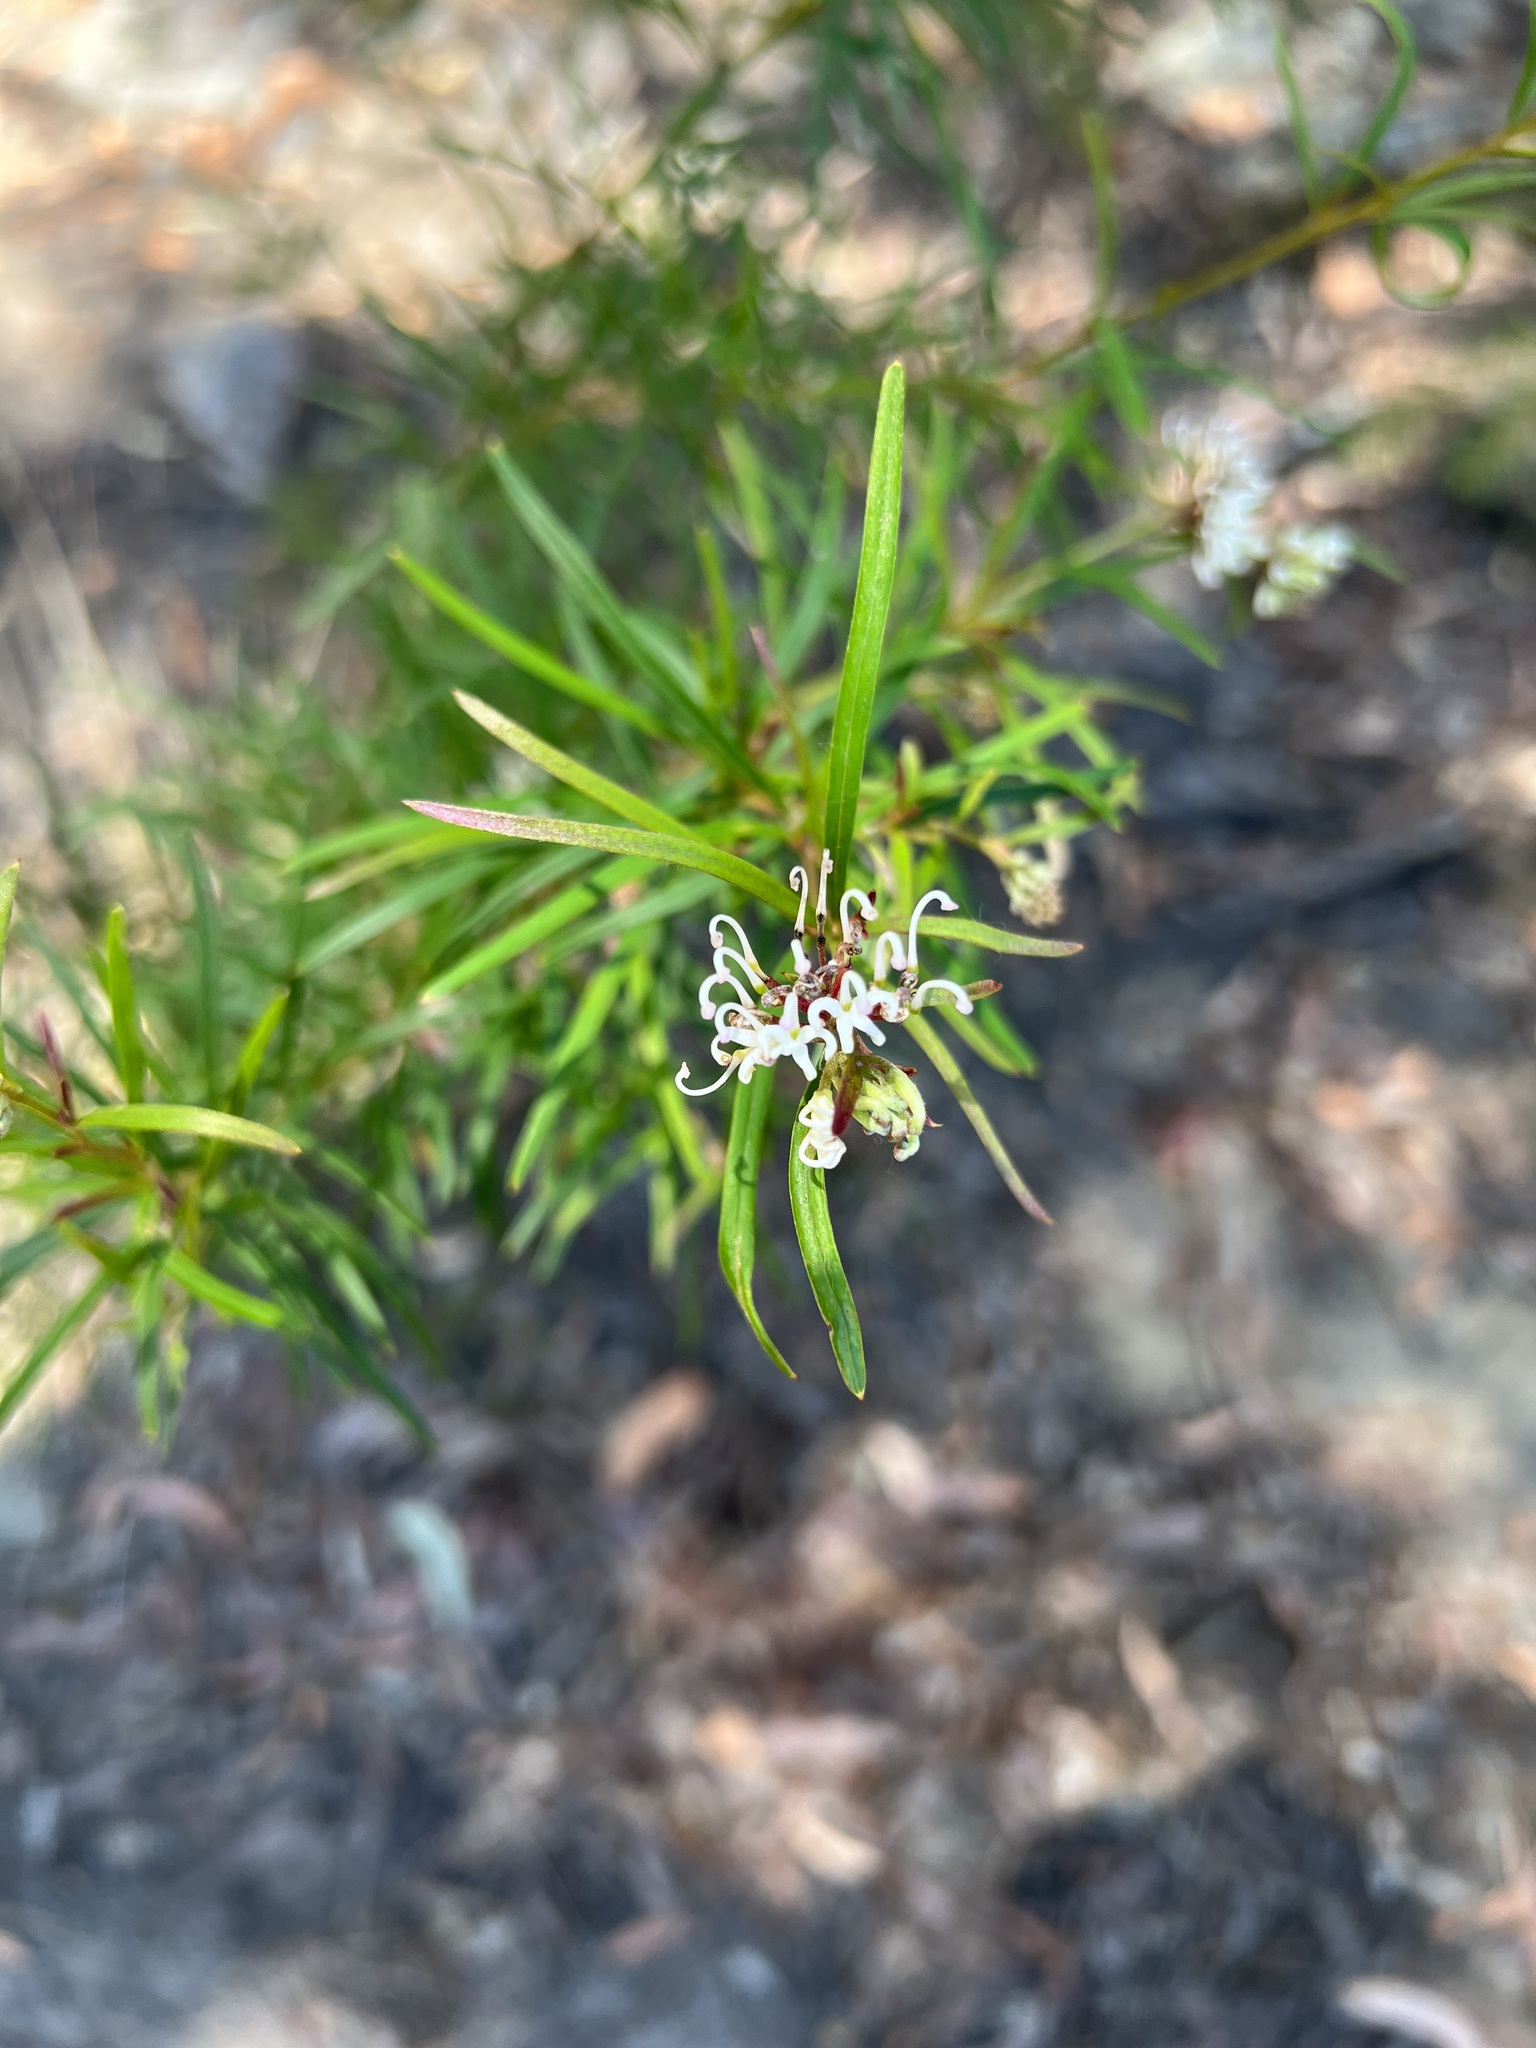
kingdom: Plantae
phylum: Tracheophyta
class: Magnoliopsida
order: Proteales
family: Proteaceae
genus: Grevillea
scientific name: Grevillea linearifolia
